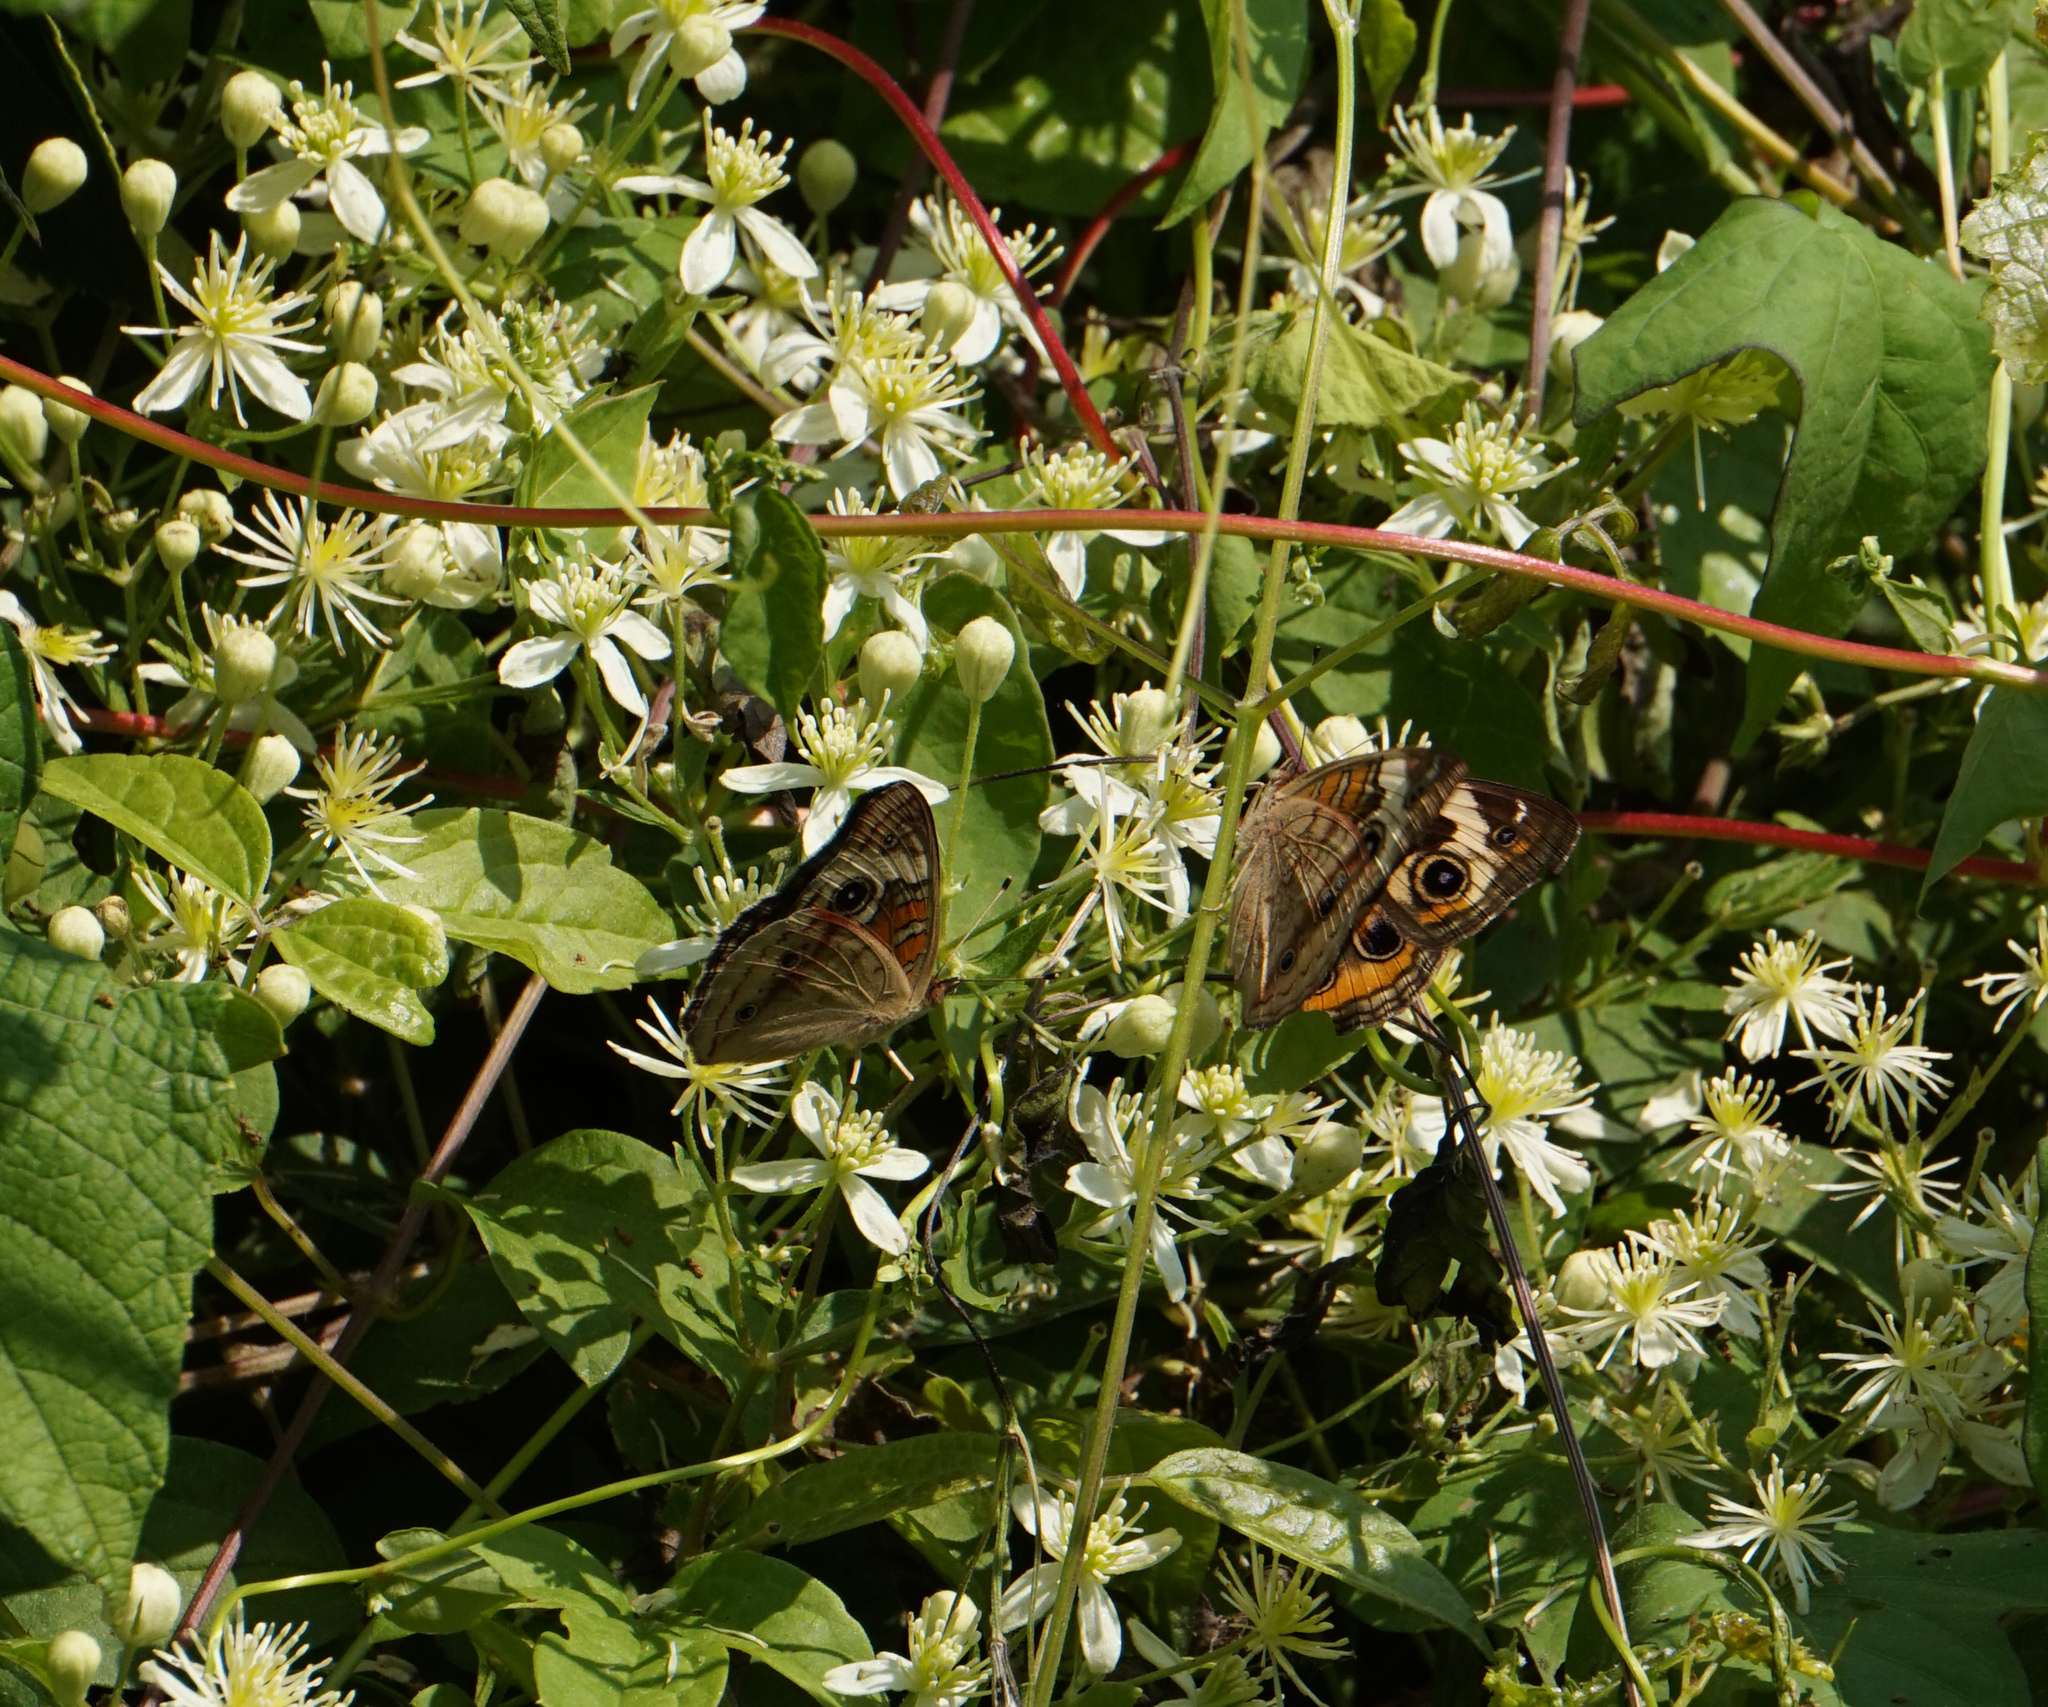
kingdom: Animalia
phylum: Arthropoda
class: Insecta
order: Lepidoptera
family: Nymphalidae
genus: Junonia
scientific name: Junonia coenia
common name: Common buckeye
